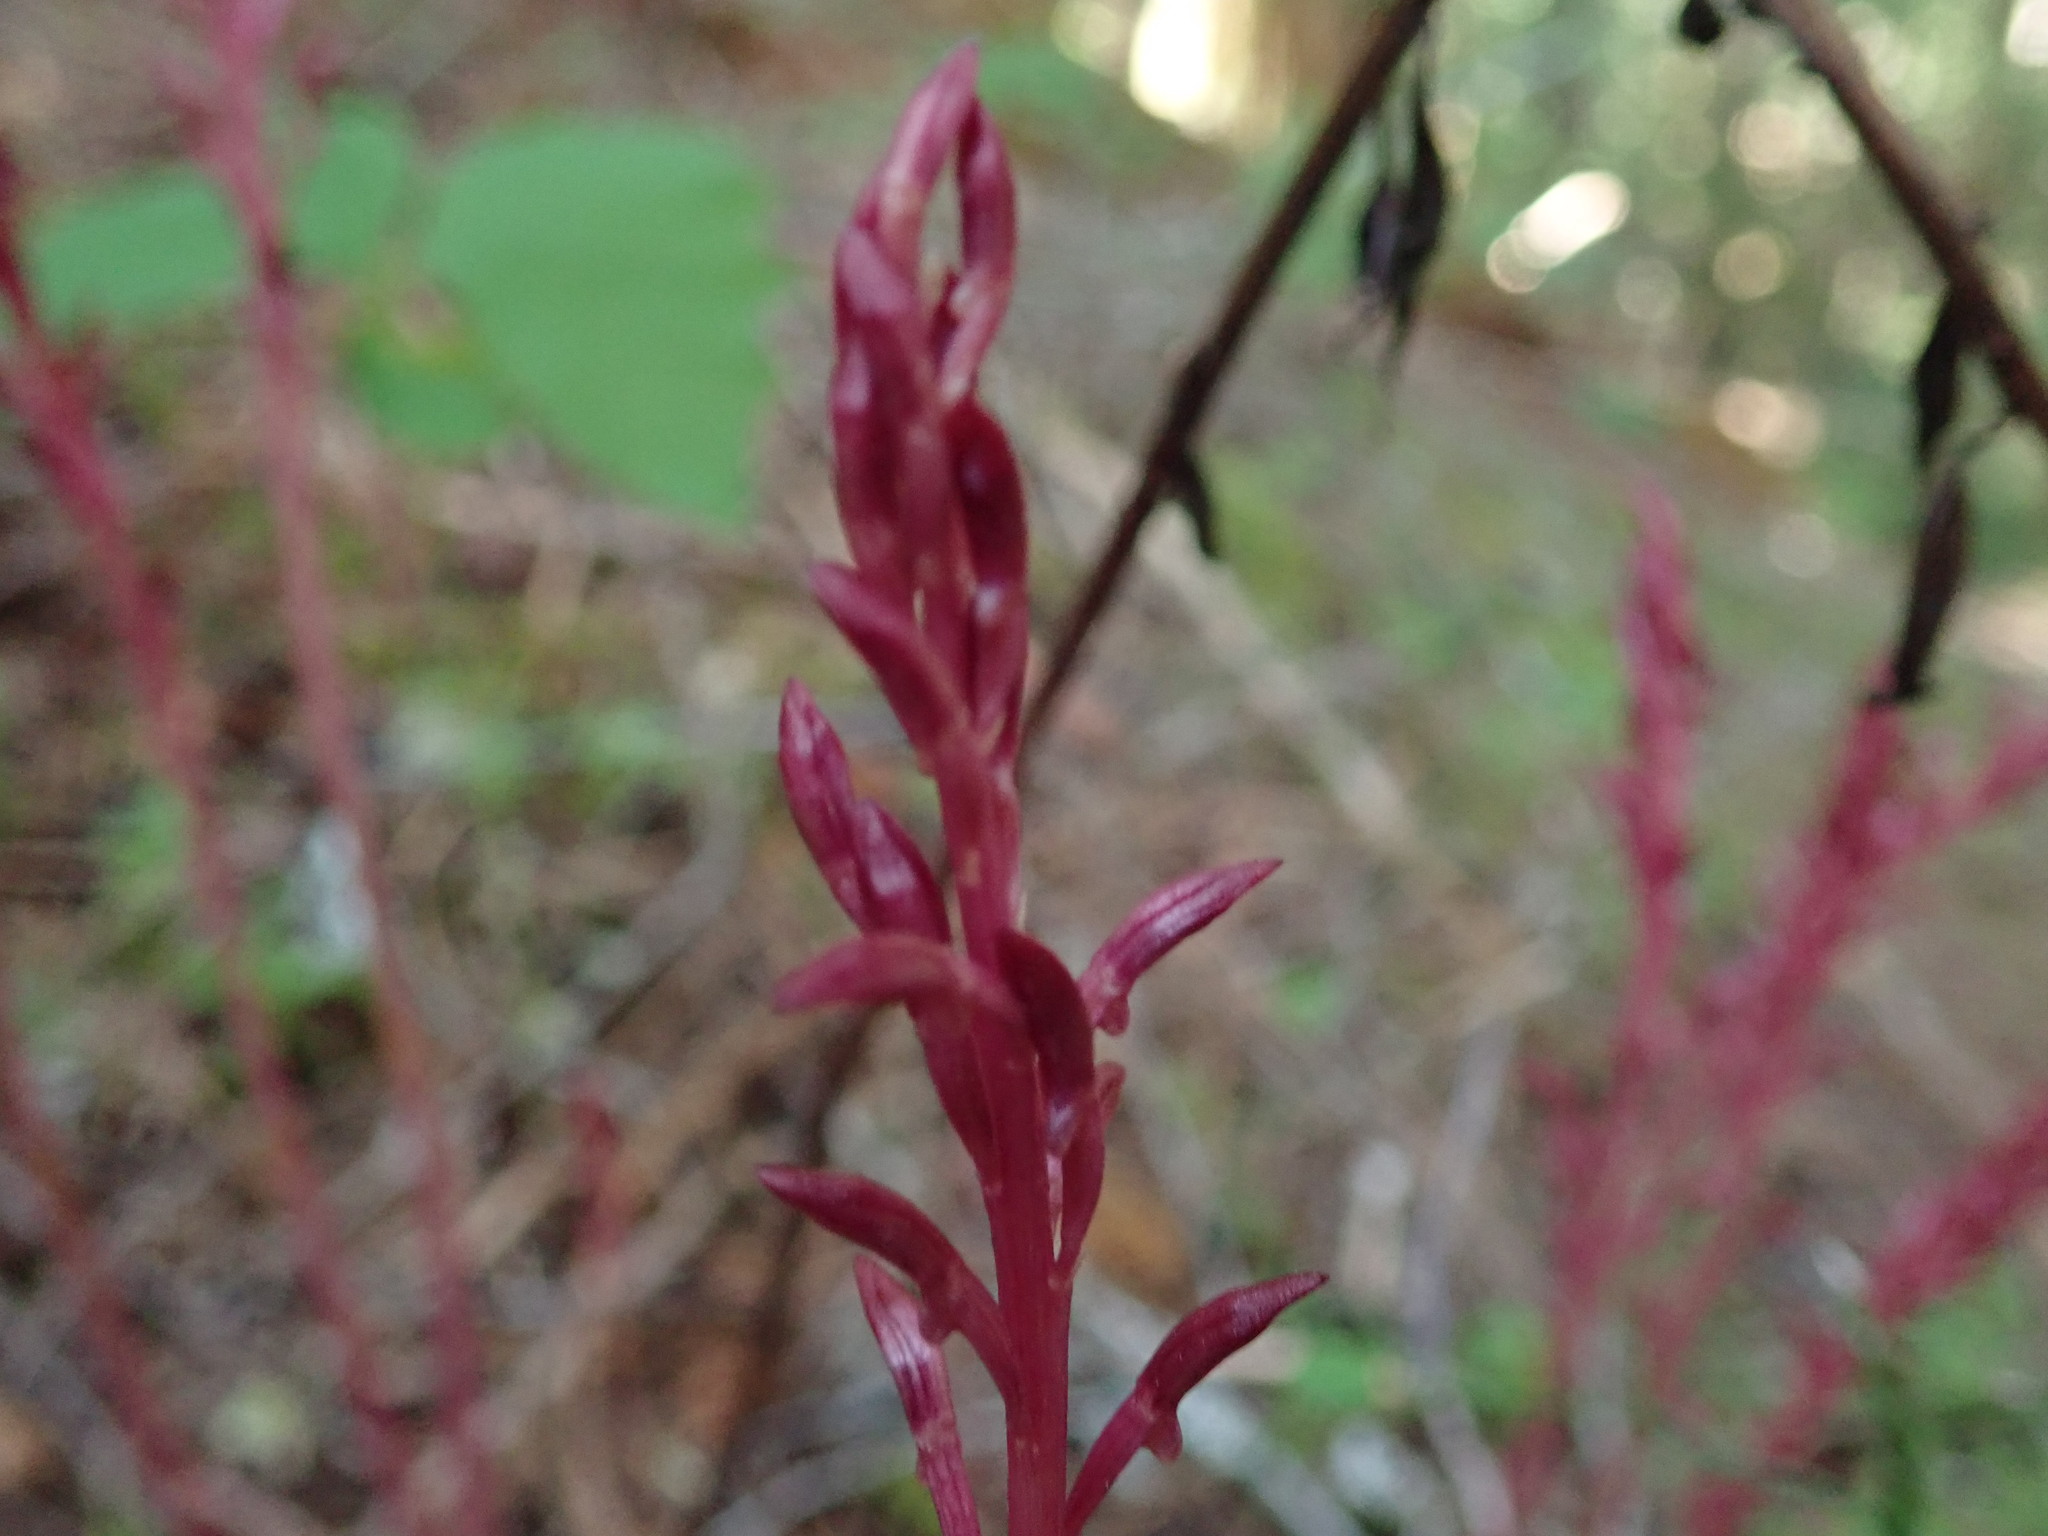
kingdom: Plantae
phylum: Tracheophyta
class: Liliopsida
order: Asparagales
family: Orchidaceae
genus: Corallorhiza
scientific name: Corallorhiza mertensiana
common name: Pacific coralroot
